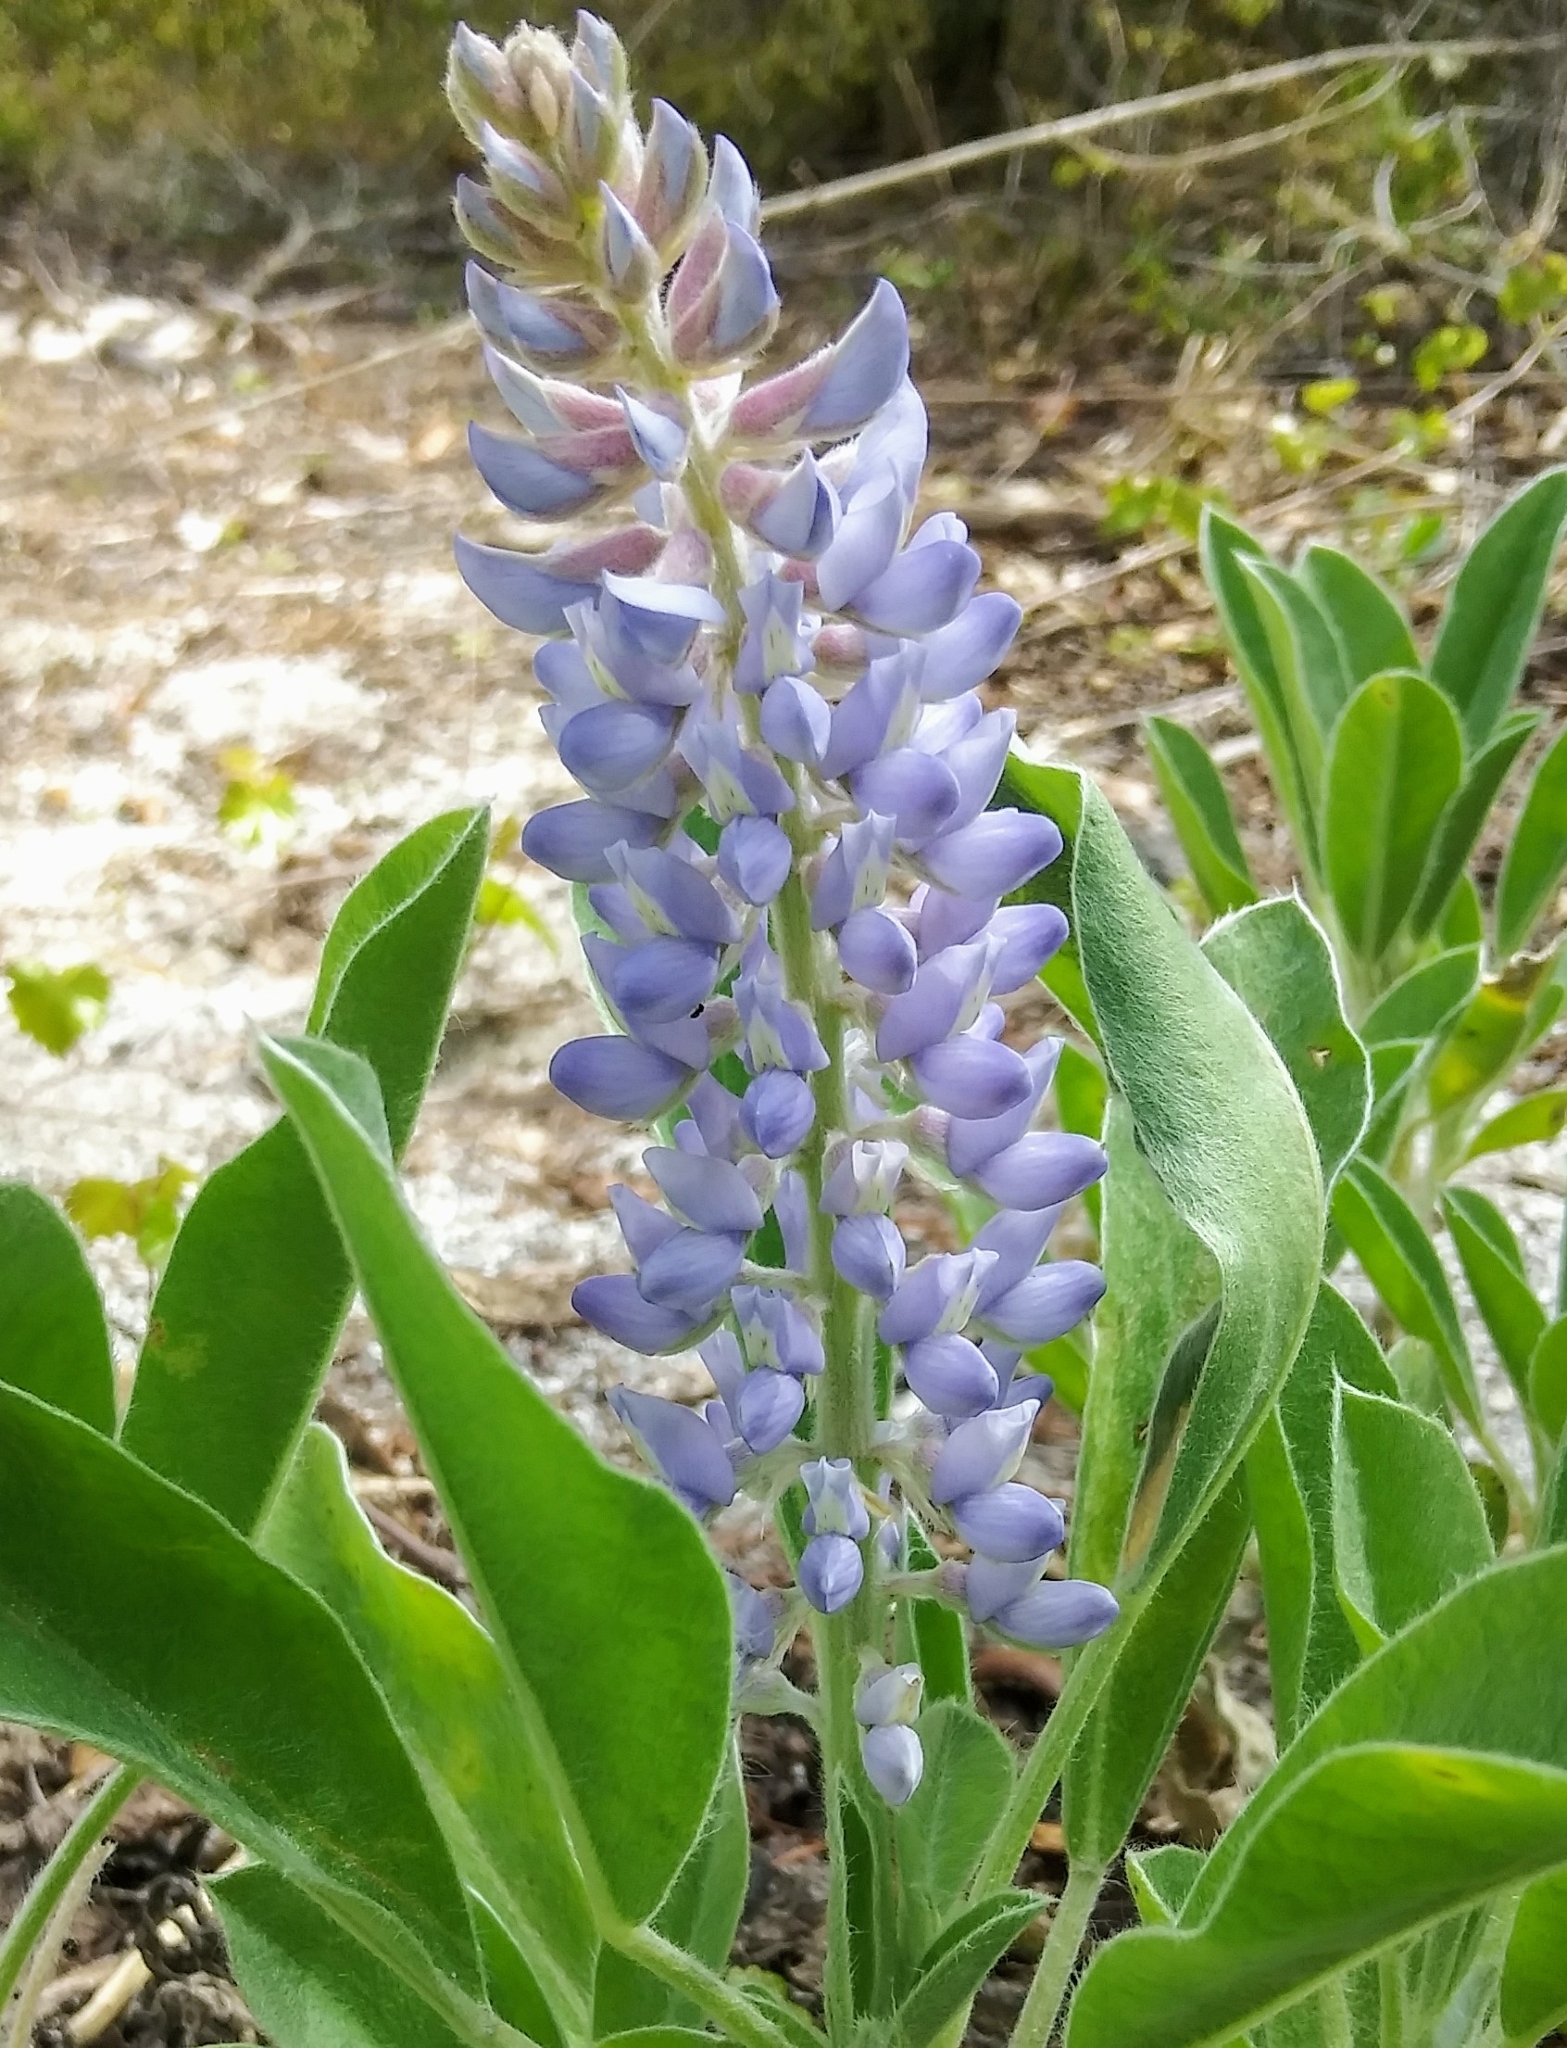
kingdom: Plantae
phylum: Tracheophyta
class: Magnoliopsida
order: Fabales
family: Fabaceae
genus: Lupinus
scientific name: Lupinus
